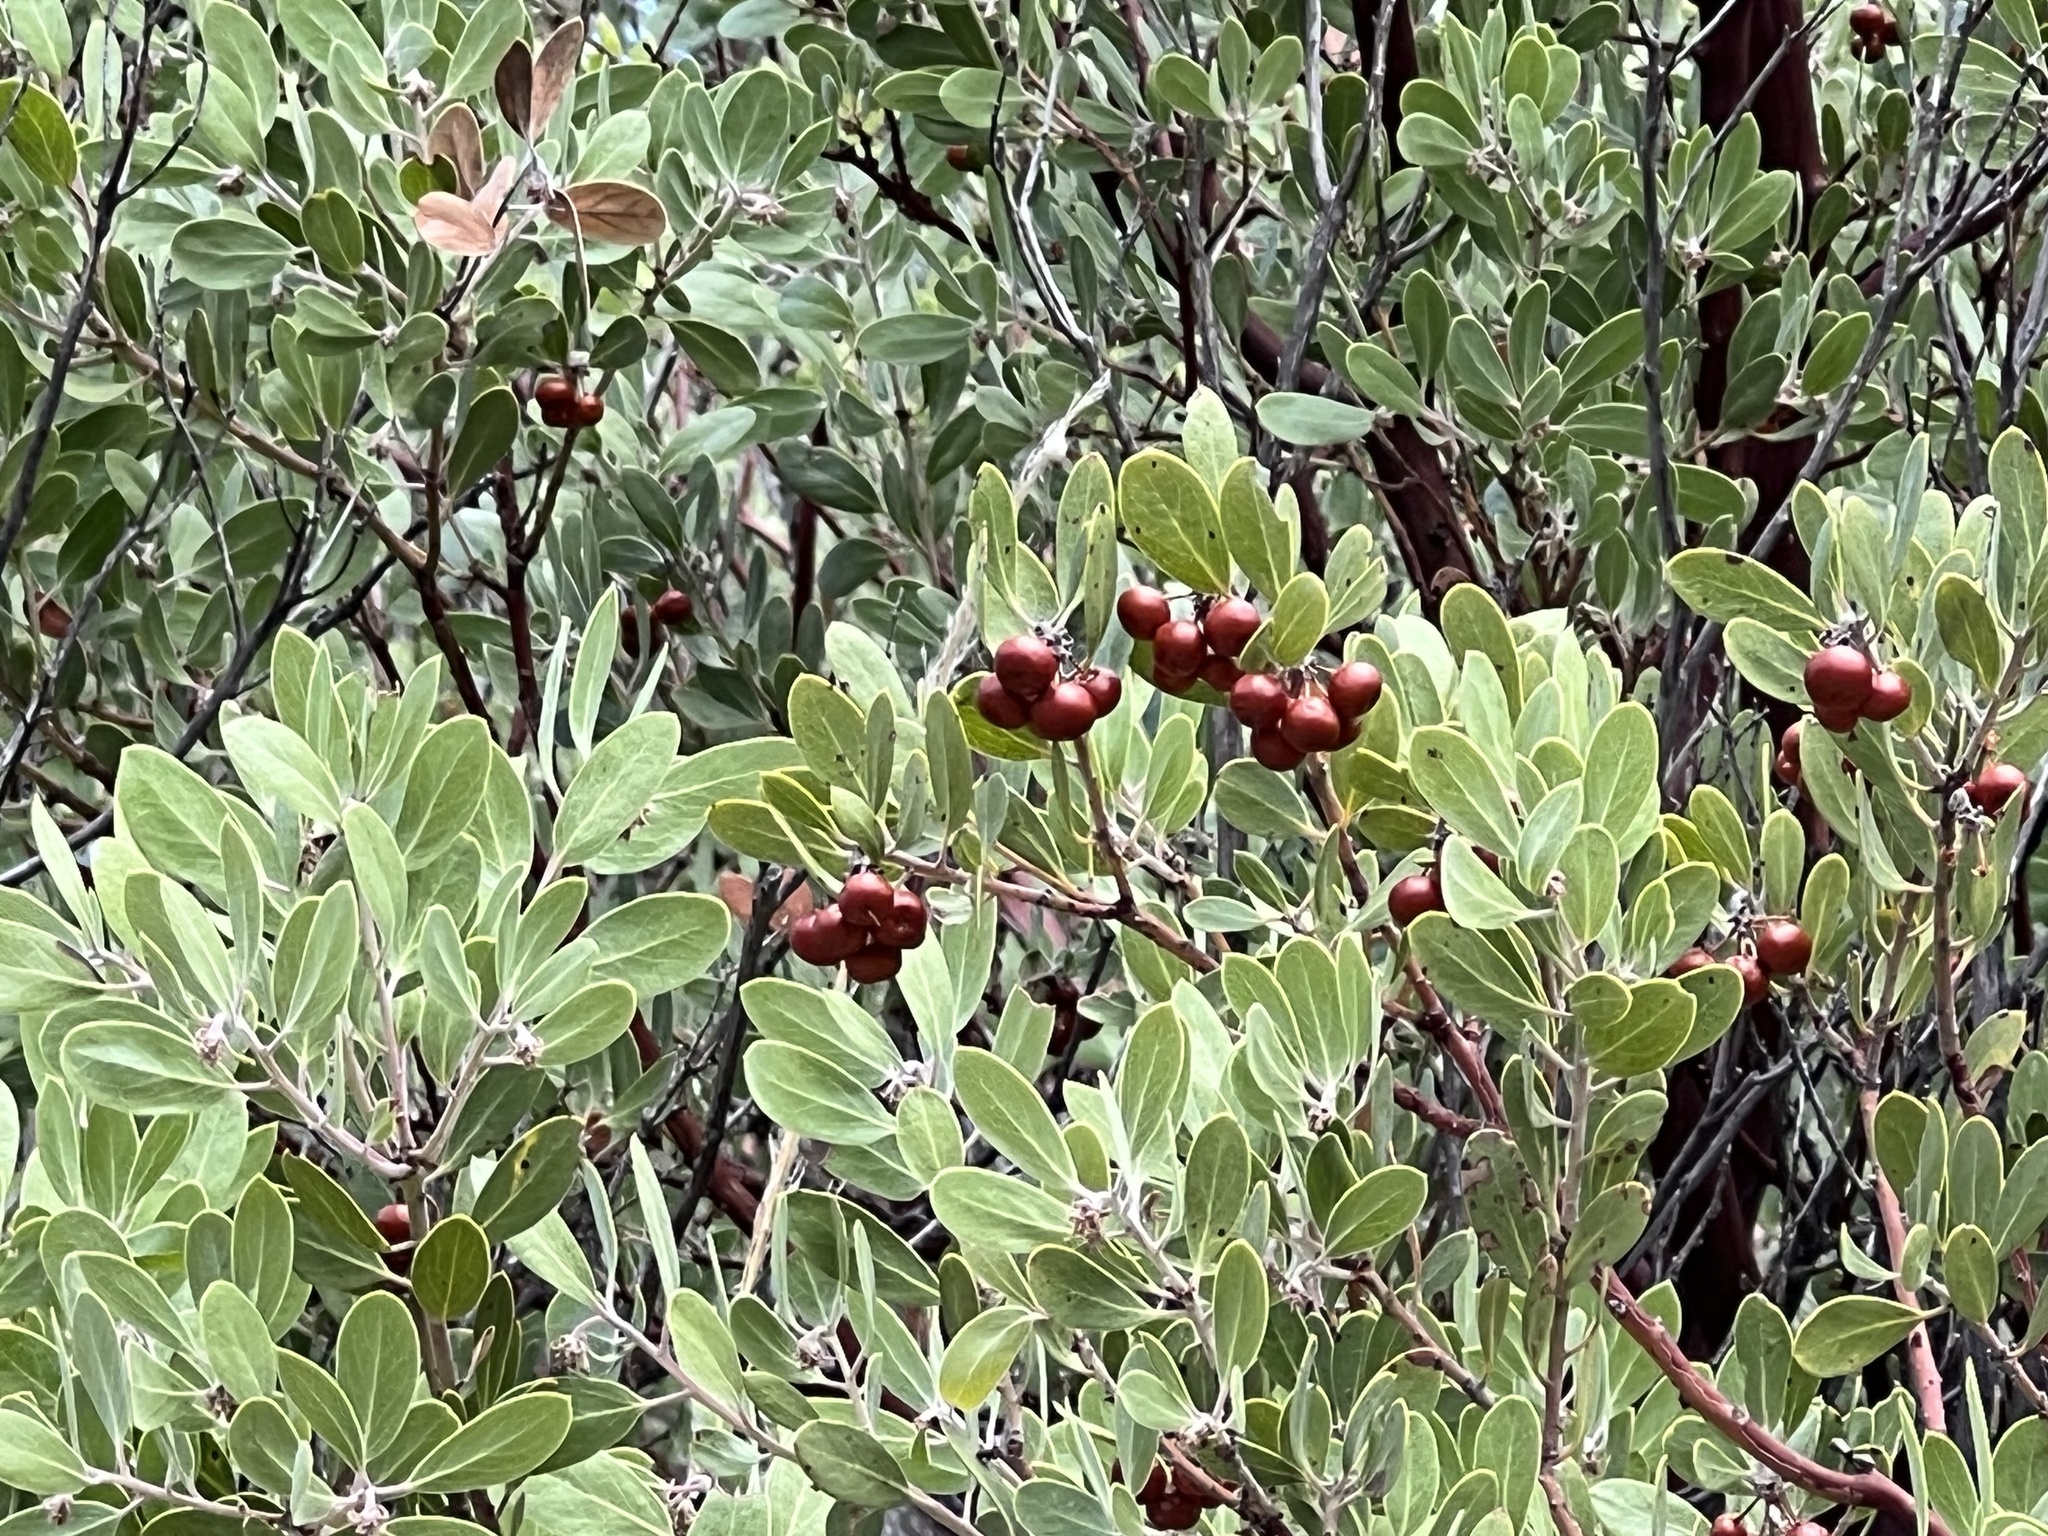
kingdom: Plantae
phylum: Tracheophyta
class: Magnoliopsida
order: Ericales
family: Ericaceae
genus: Arctostaphylos
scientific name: Arctostaphylos pungens
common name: Mexican manzanita
